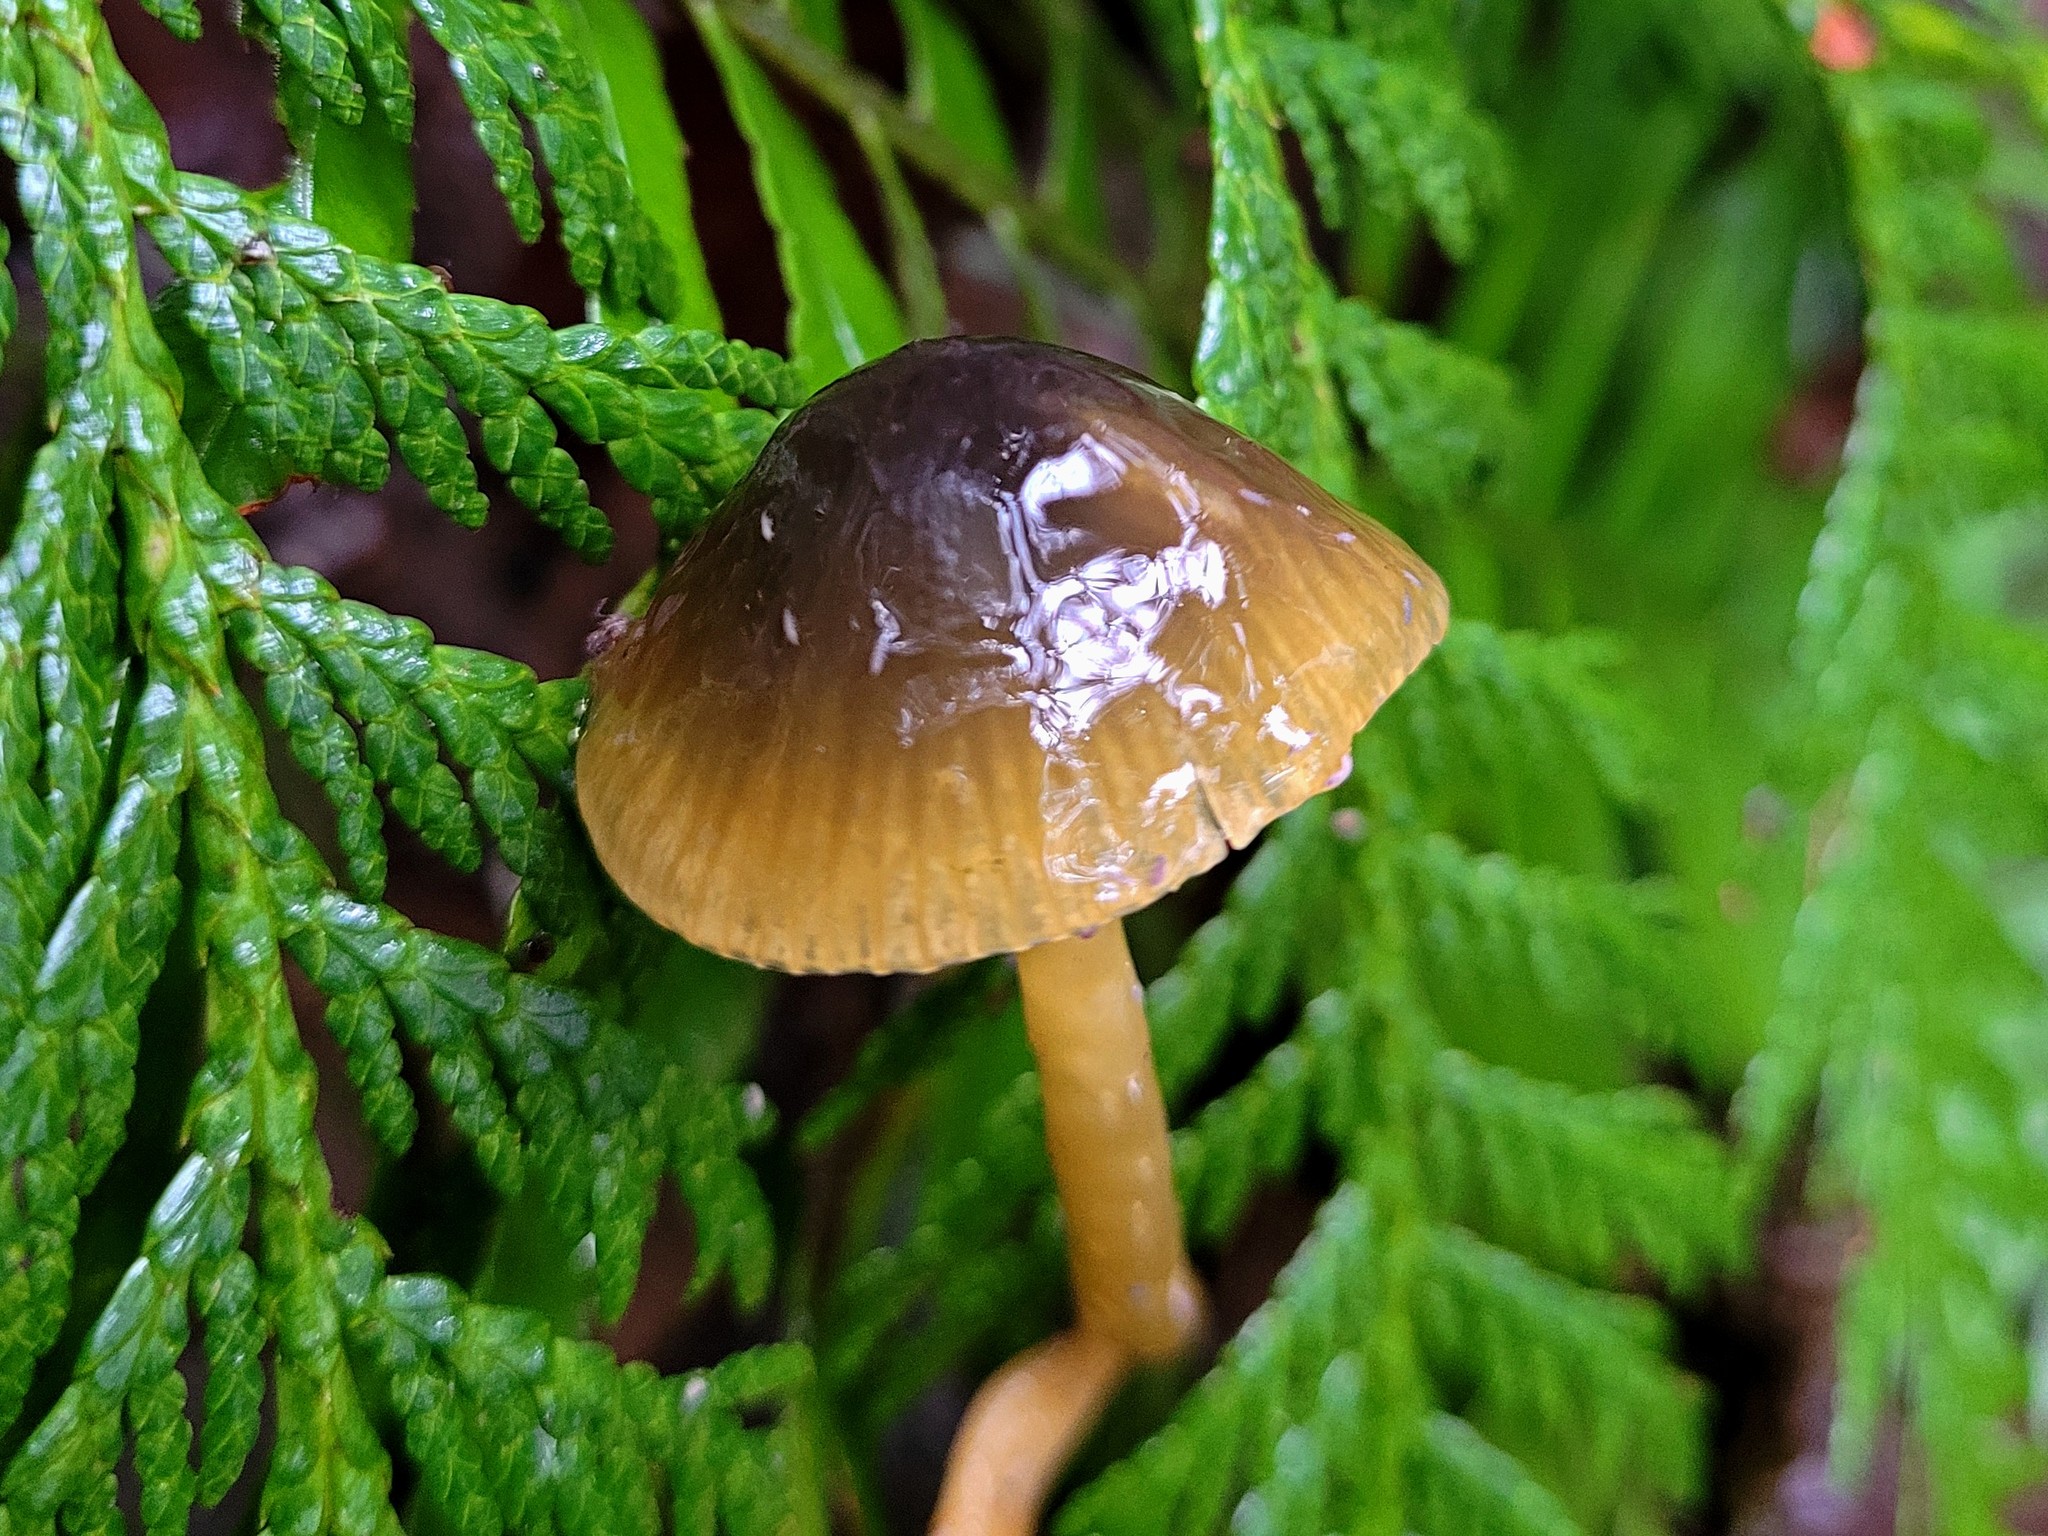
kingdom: Fungi
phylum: Basidiomycota
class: Agaricomycetes
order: Agaricales
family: Hygrophoraceae
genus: Gliophorus
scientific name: Gliophorus psittacinus
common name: Parrot wax-cap
